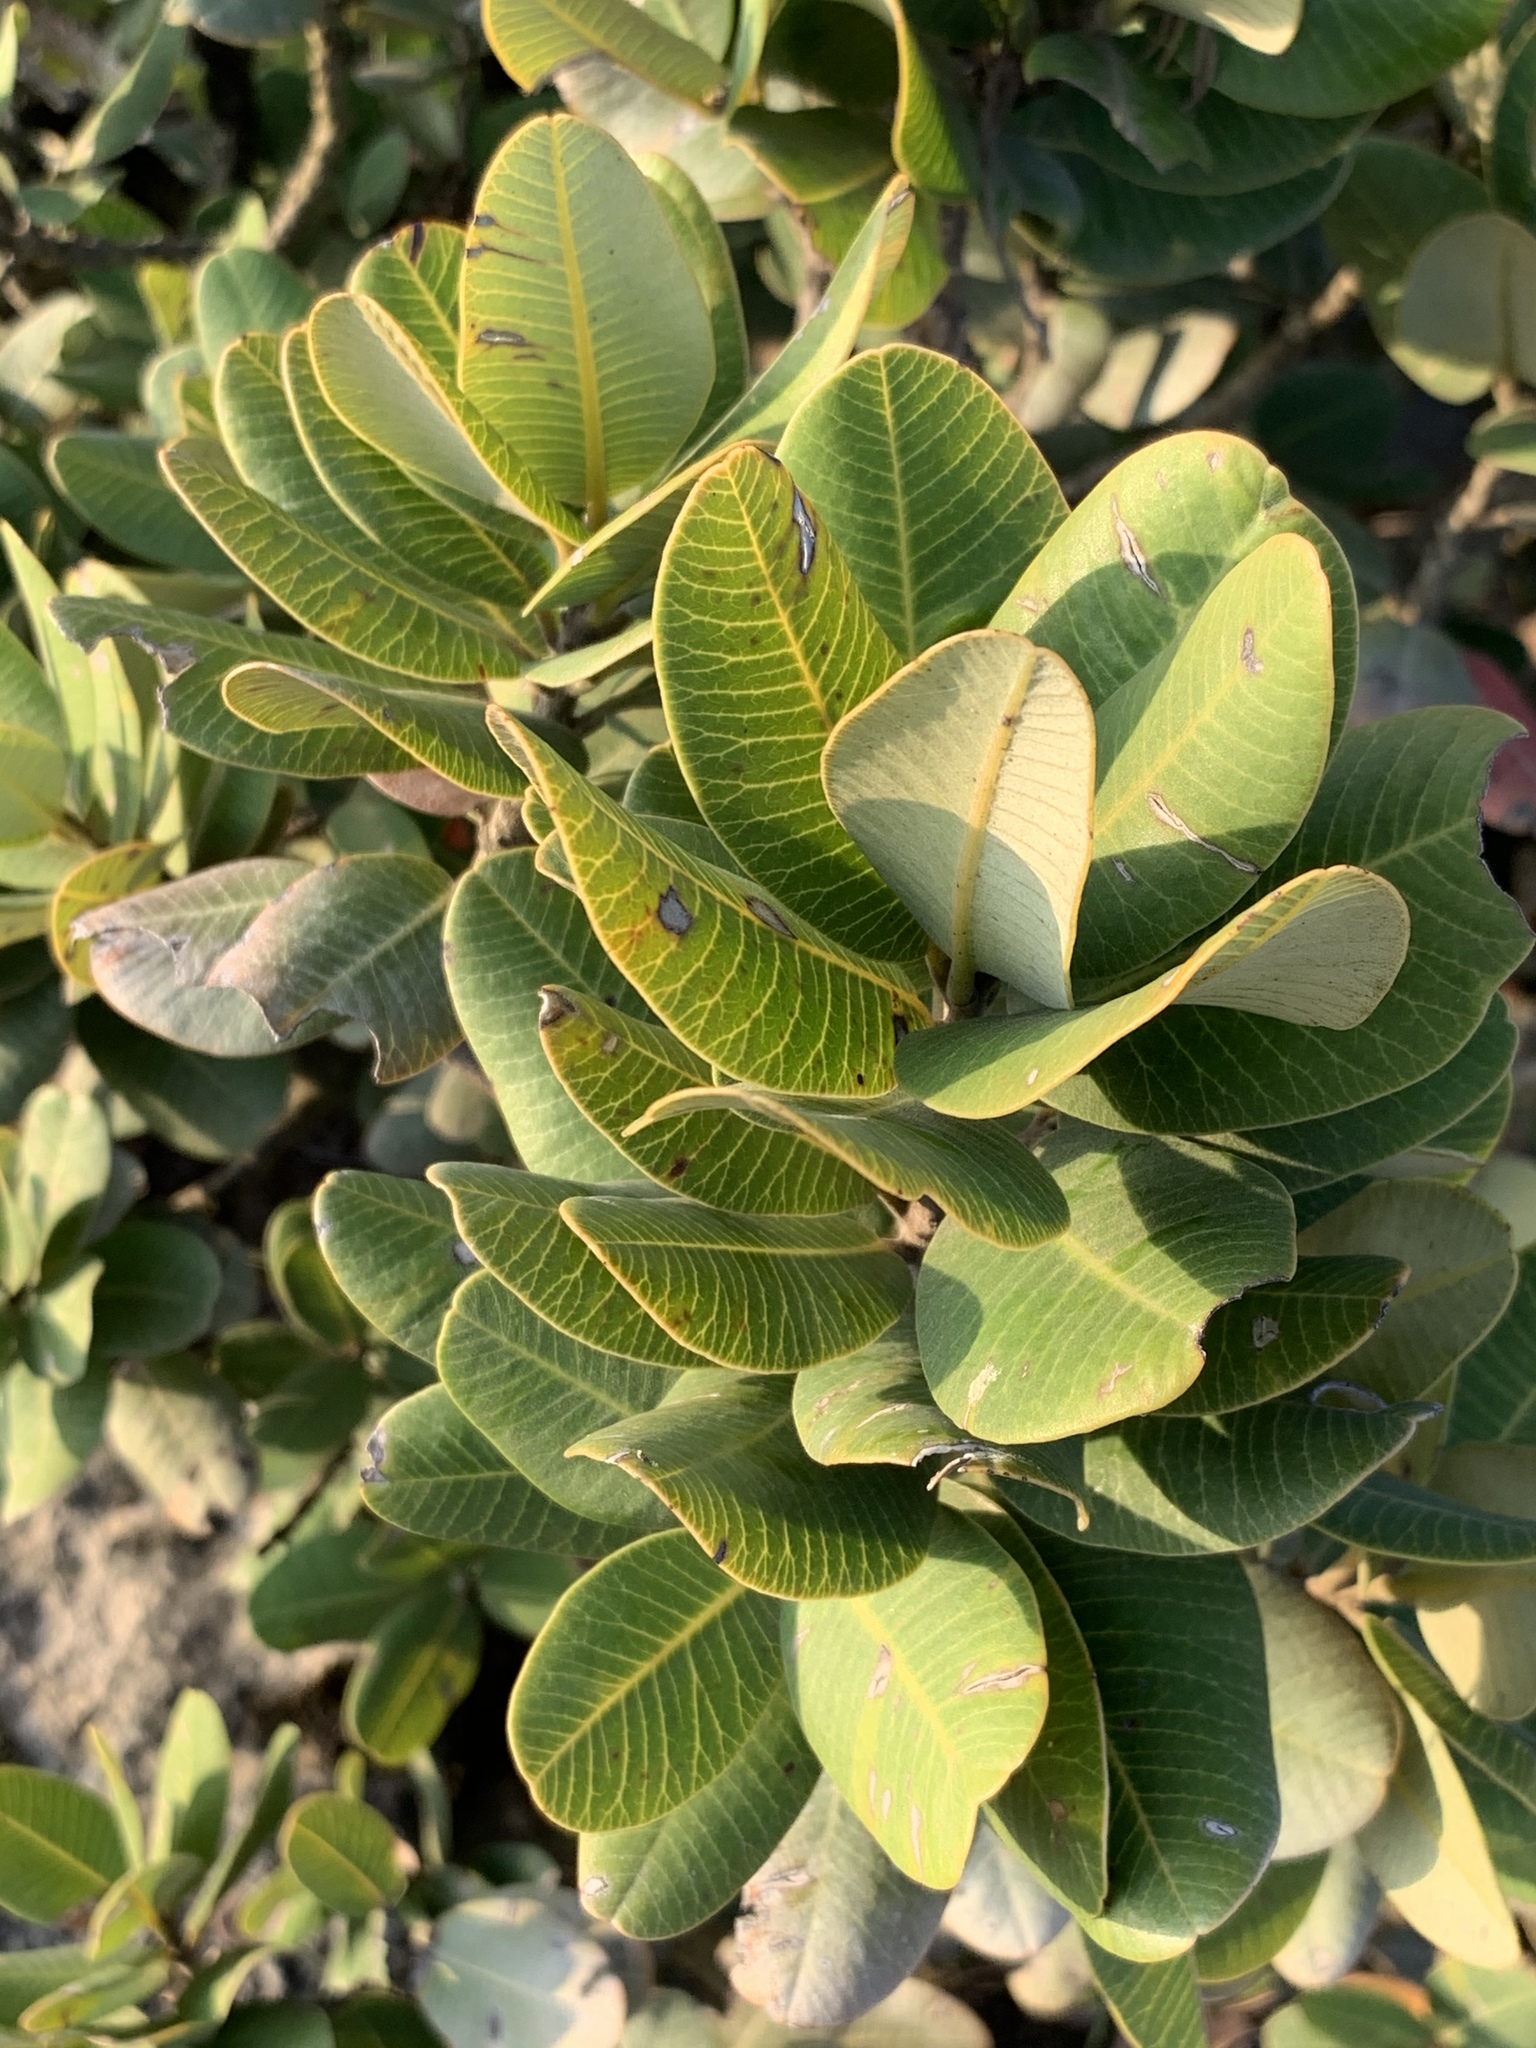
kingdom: Plantae
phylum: Tracheophyta
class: Magnoliopsida
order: Sapindales
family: Anacardiaceae
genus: Heeria
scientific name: Heeria argentea
